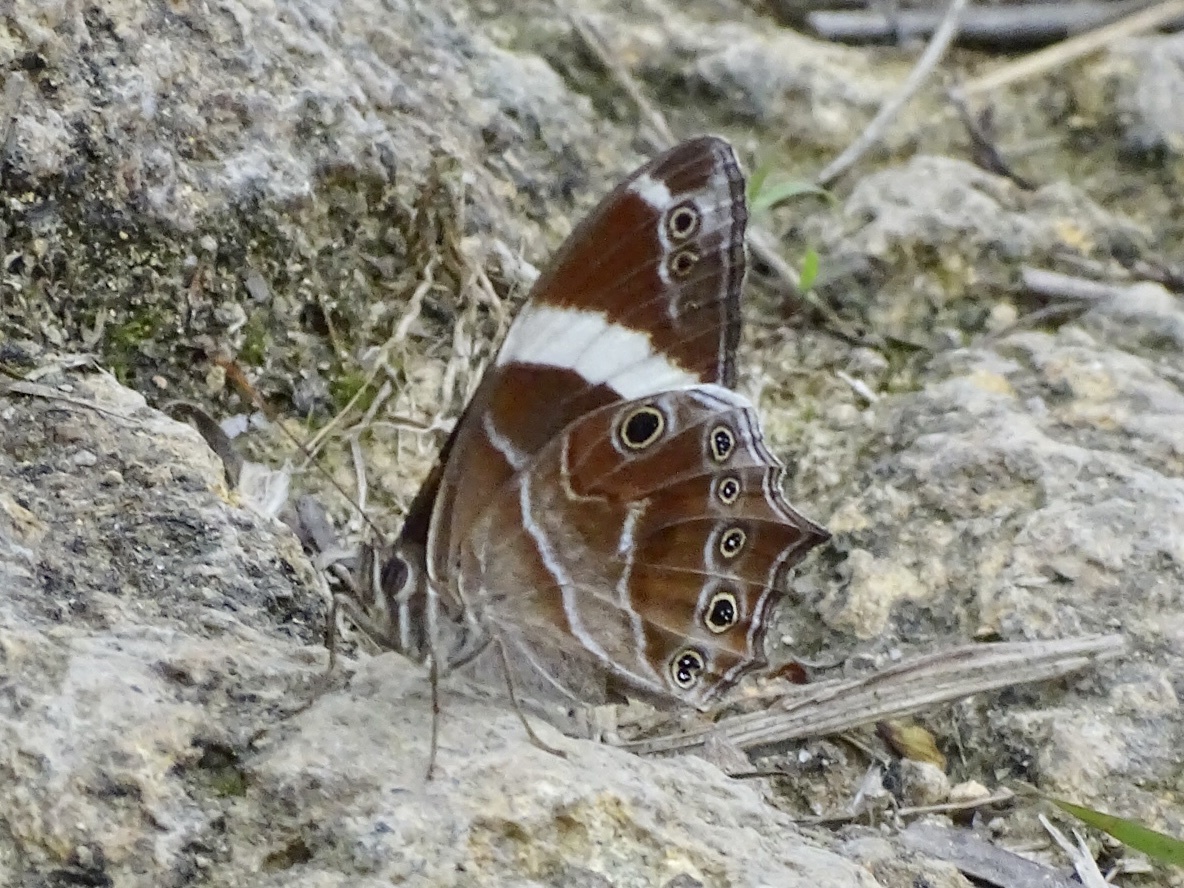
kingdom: Animalia
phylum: Arthropoda
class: Insecta
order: Lepidoptera
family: Nymphalidae
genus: Lethe
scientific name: Lethe confusa
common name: Banded treebrown
